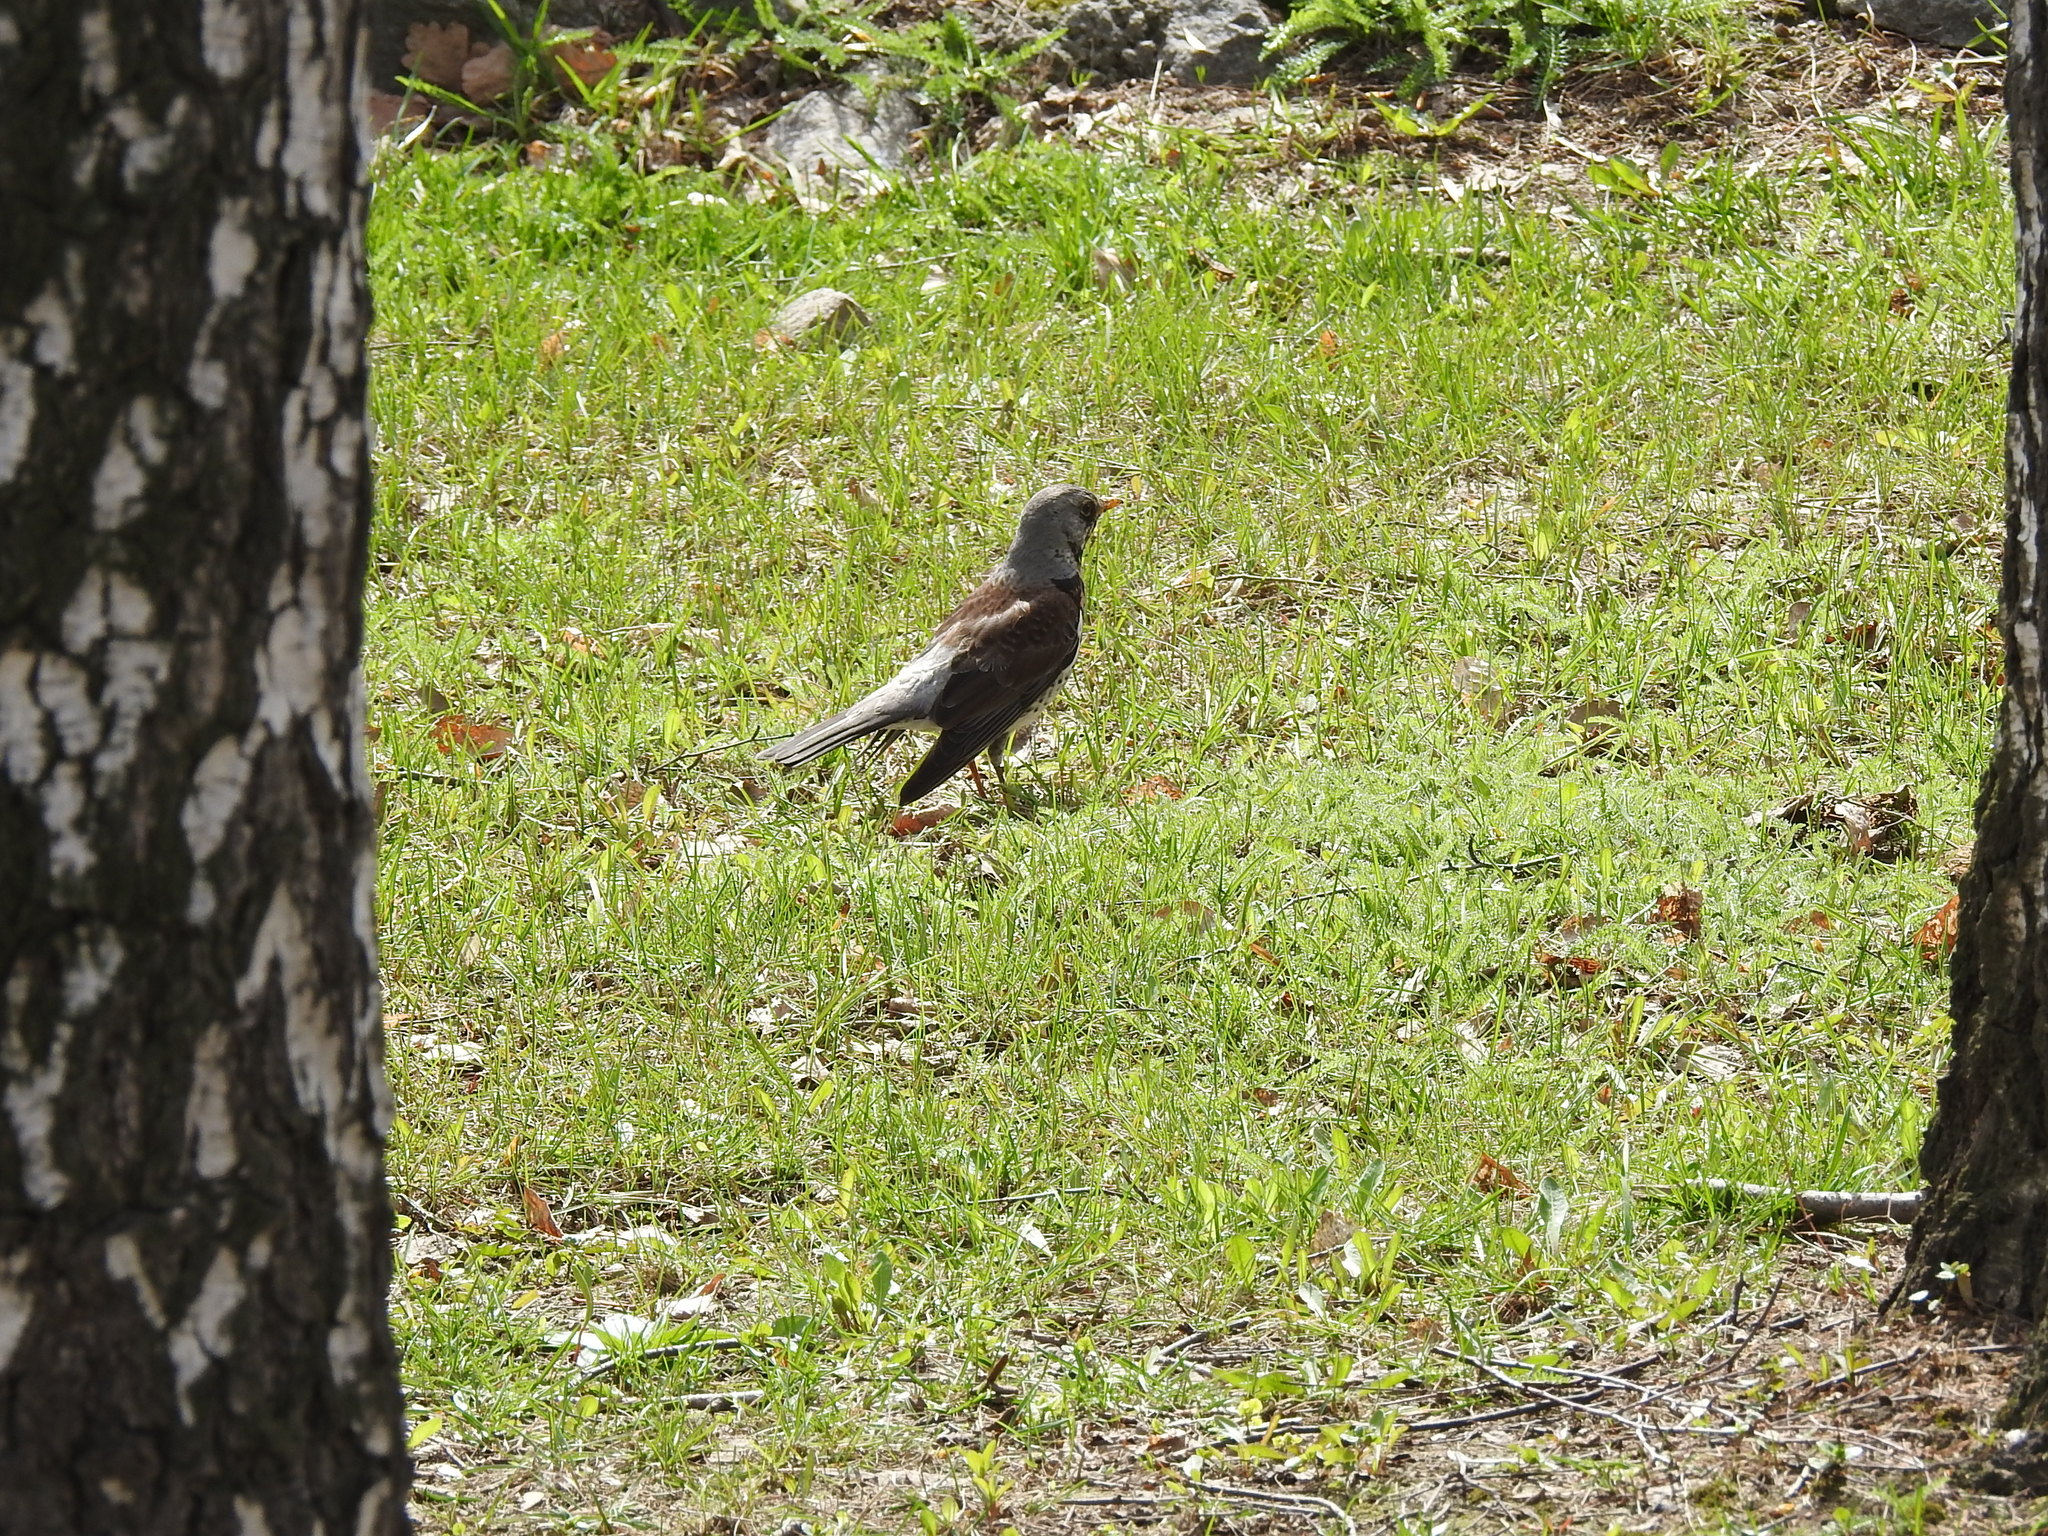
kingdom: Animalia
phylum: Chordata
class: Aves
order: Passeriformes
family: Turdidae
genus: Turdus
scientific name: Turdus pilaris
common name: Fieldfare
